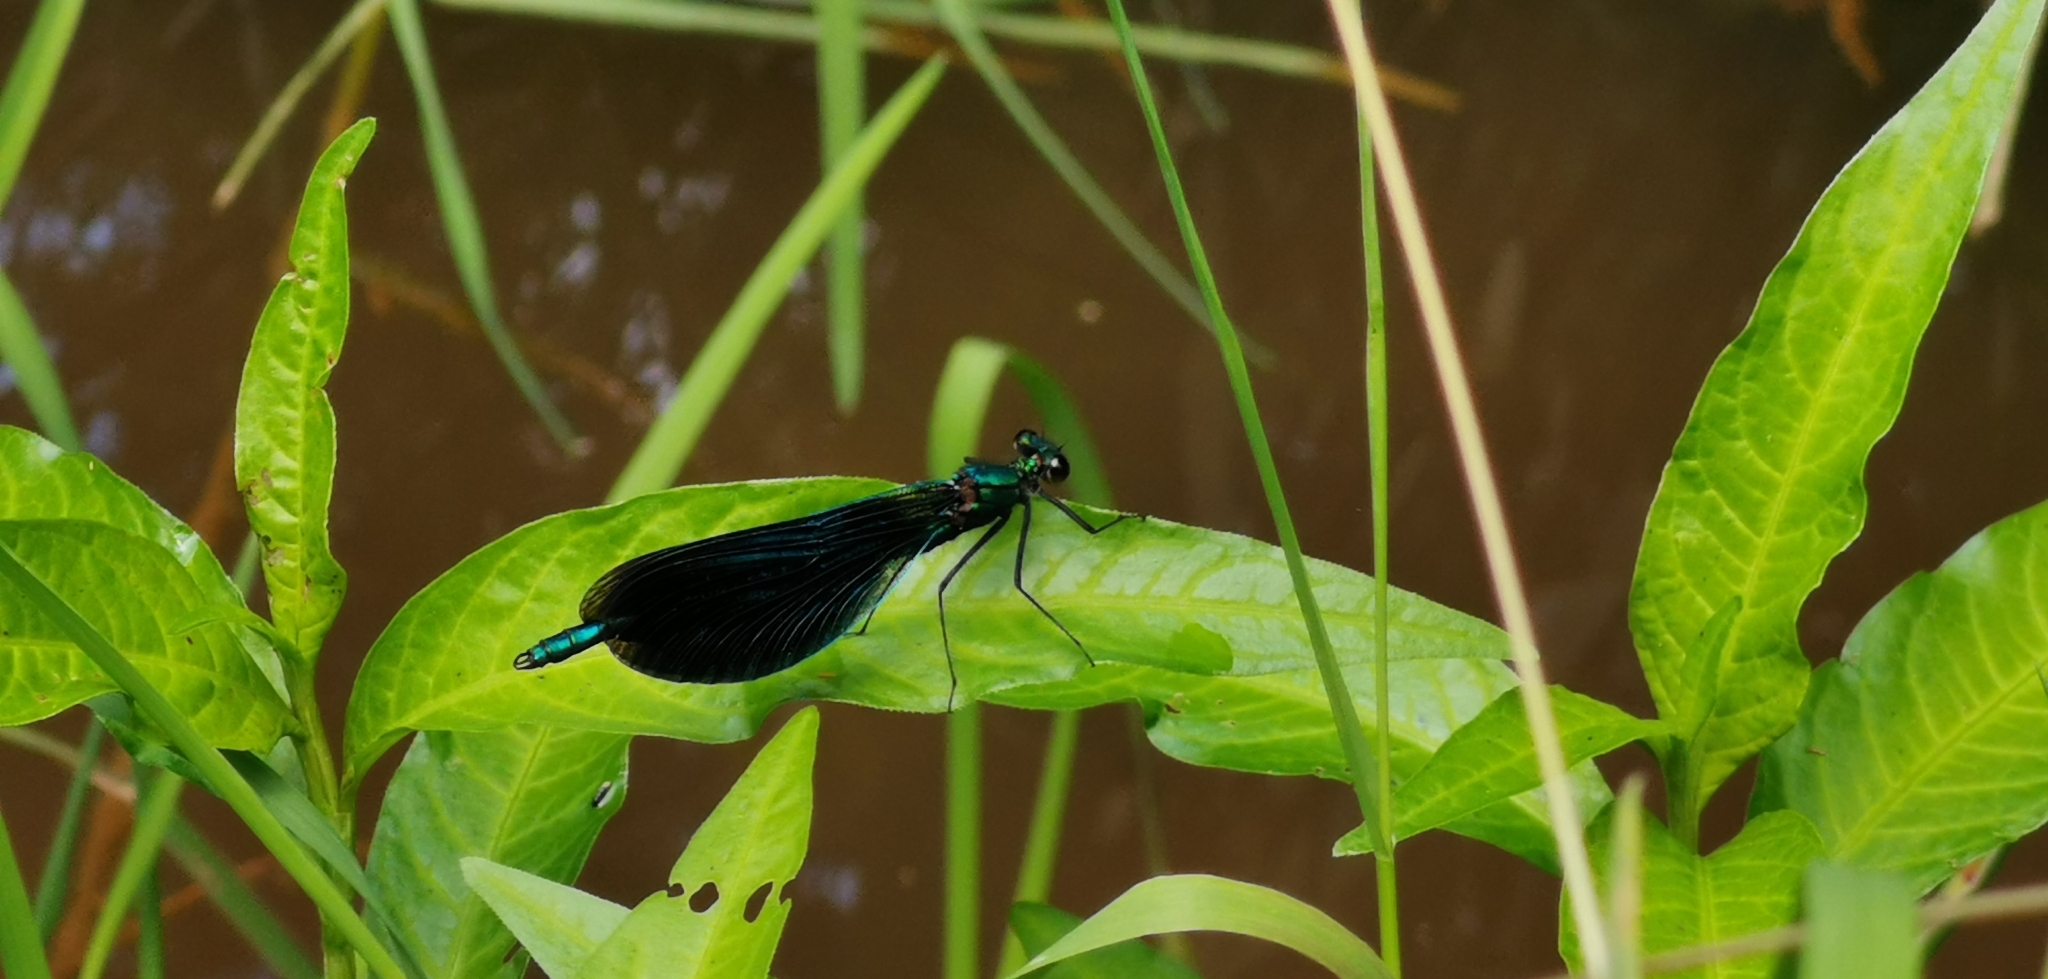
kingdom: Animalia
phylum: Arthropoda
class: Insecta
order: Odonata
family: Calopterygidae
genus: Calopteryx
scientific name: Calopteryx virgo
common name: Beautiful demoiselle
